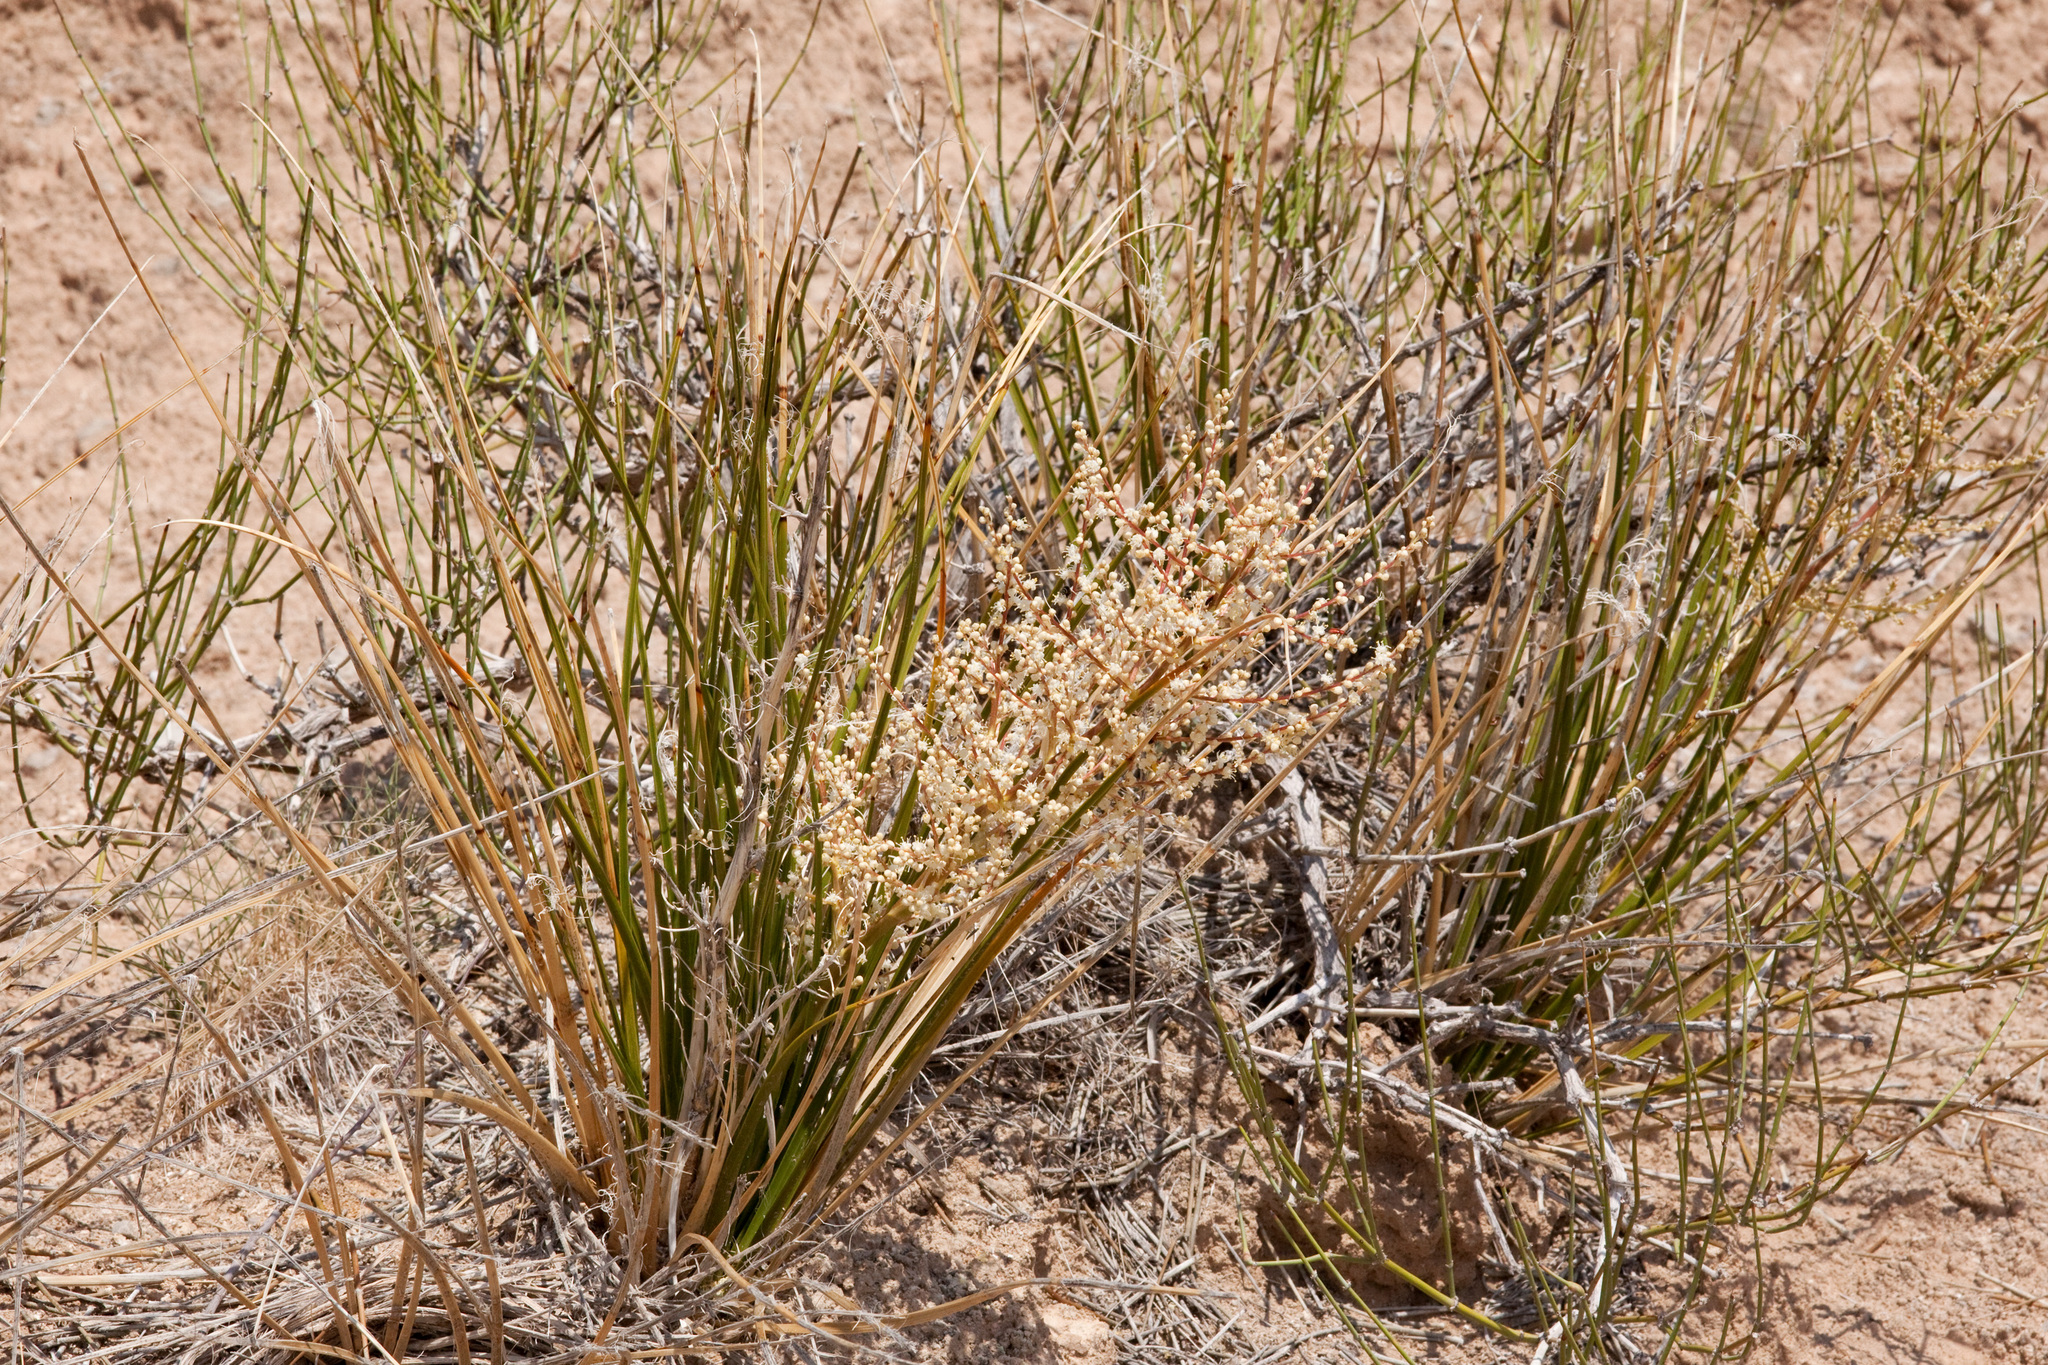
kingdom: Plantae
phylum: Tracheophyta
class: Liliopsida
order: Asparagales
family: Asparagaceae
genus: Nolina
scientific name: Nolina texana
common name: Texas sacahuiste
